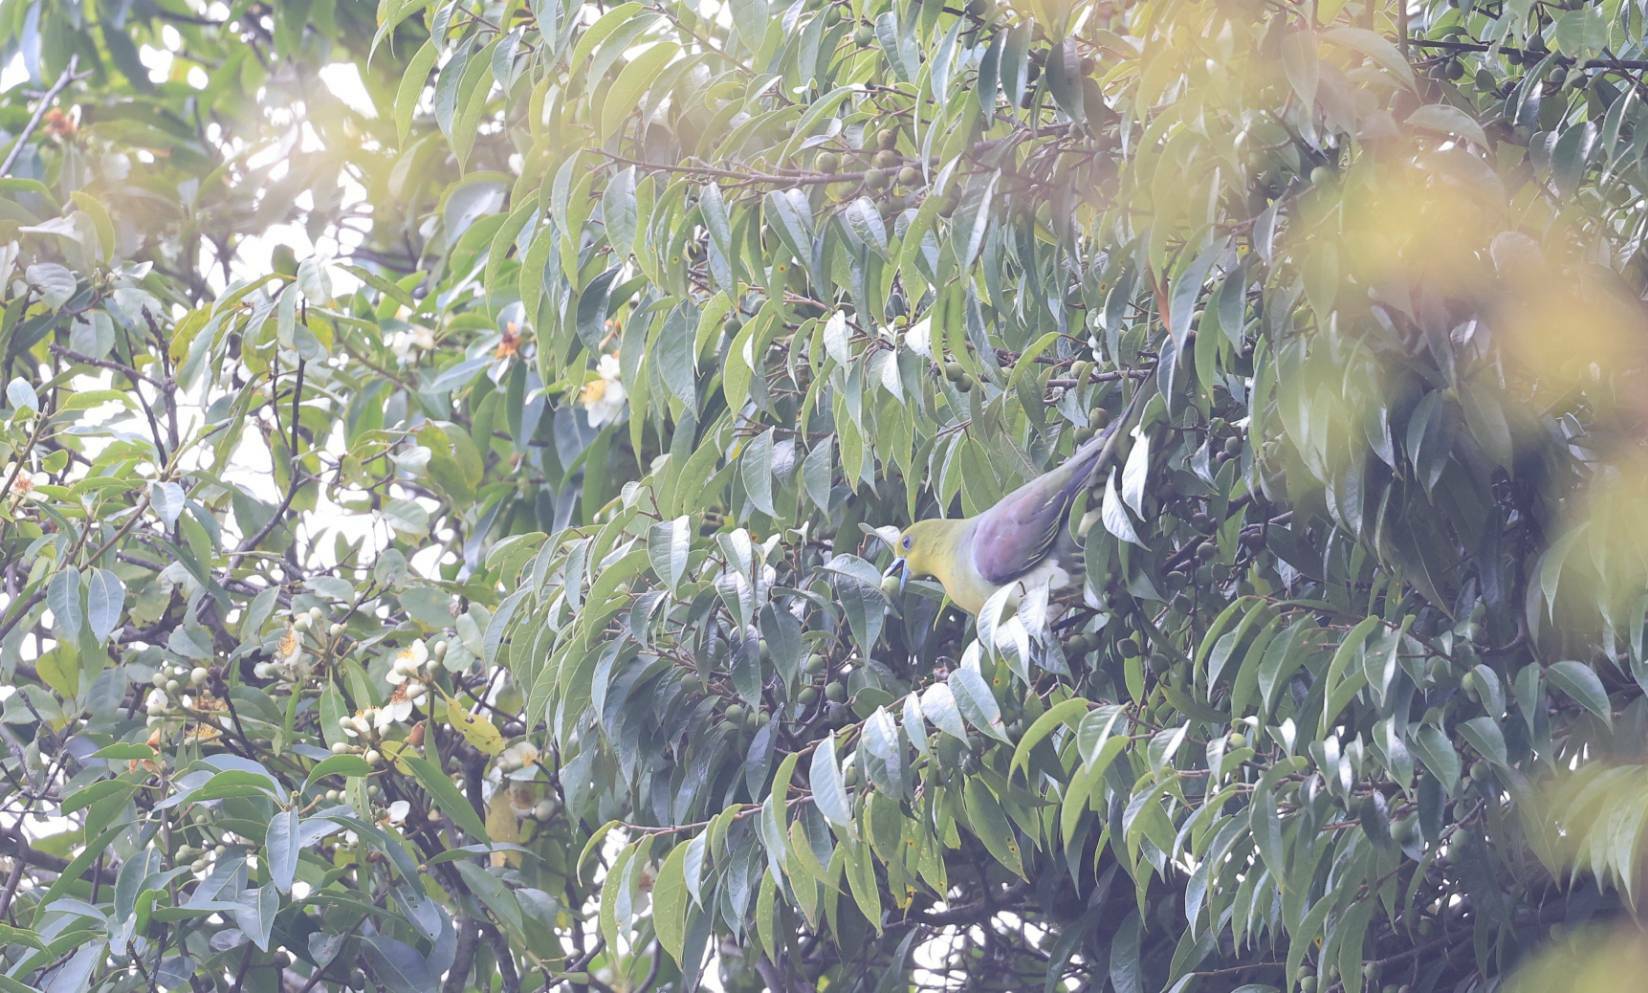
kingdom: Animalia
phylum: Chordata
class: Aves
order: Columbiformes
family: Columbidae
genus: Treron
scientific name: Treron sieboldii
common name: White-bellied green pigeon
